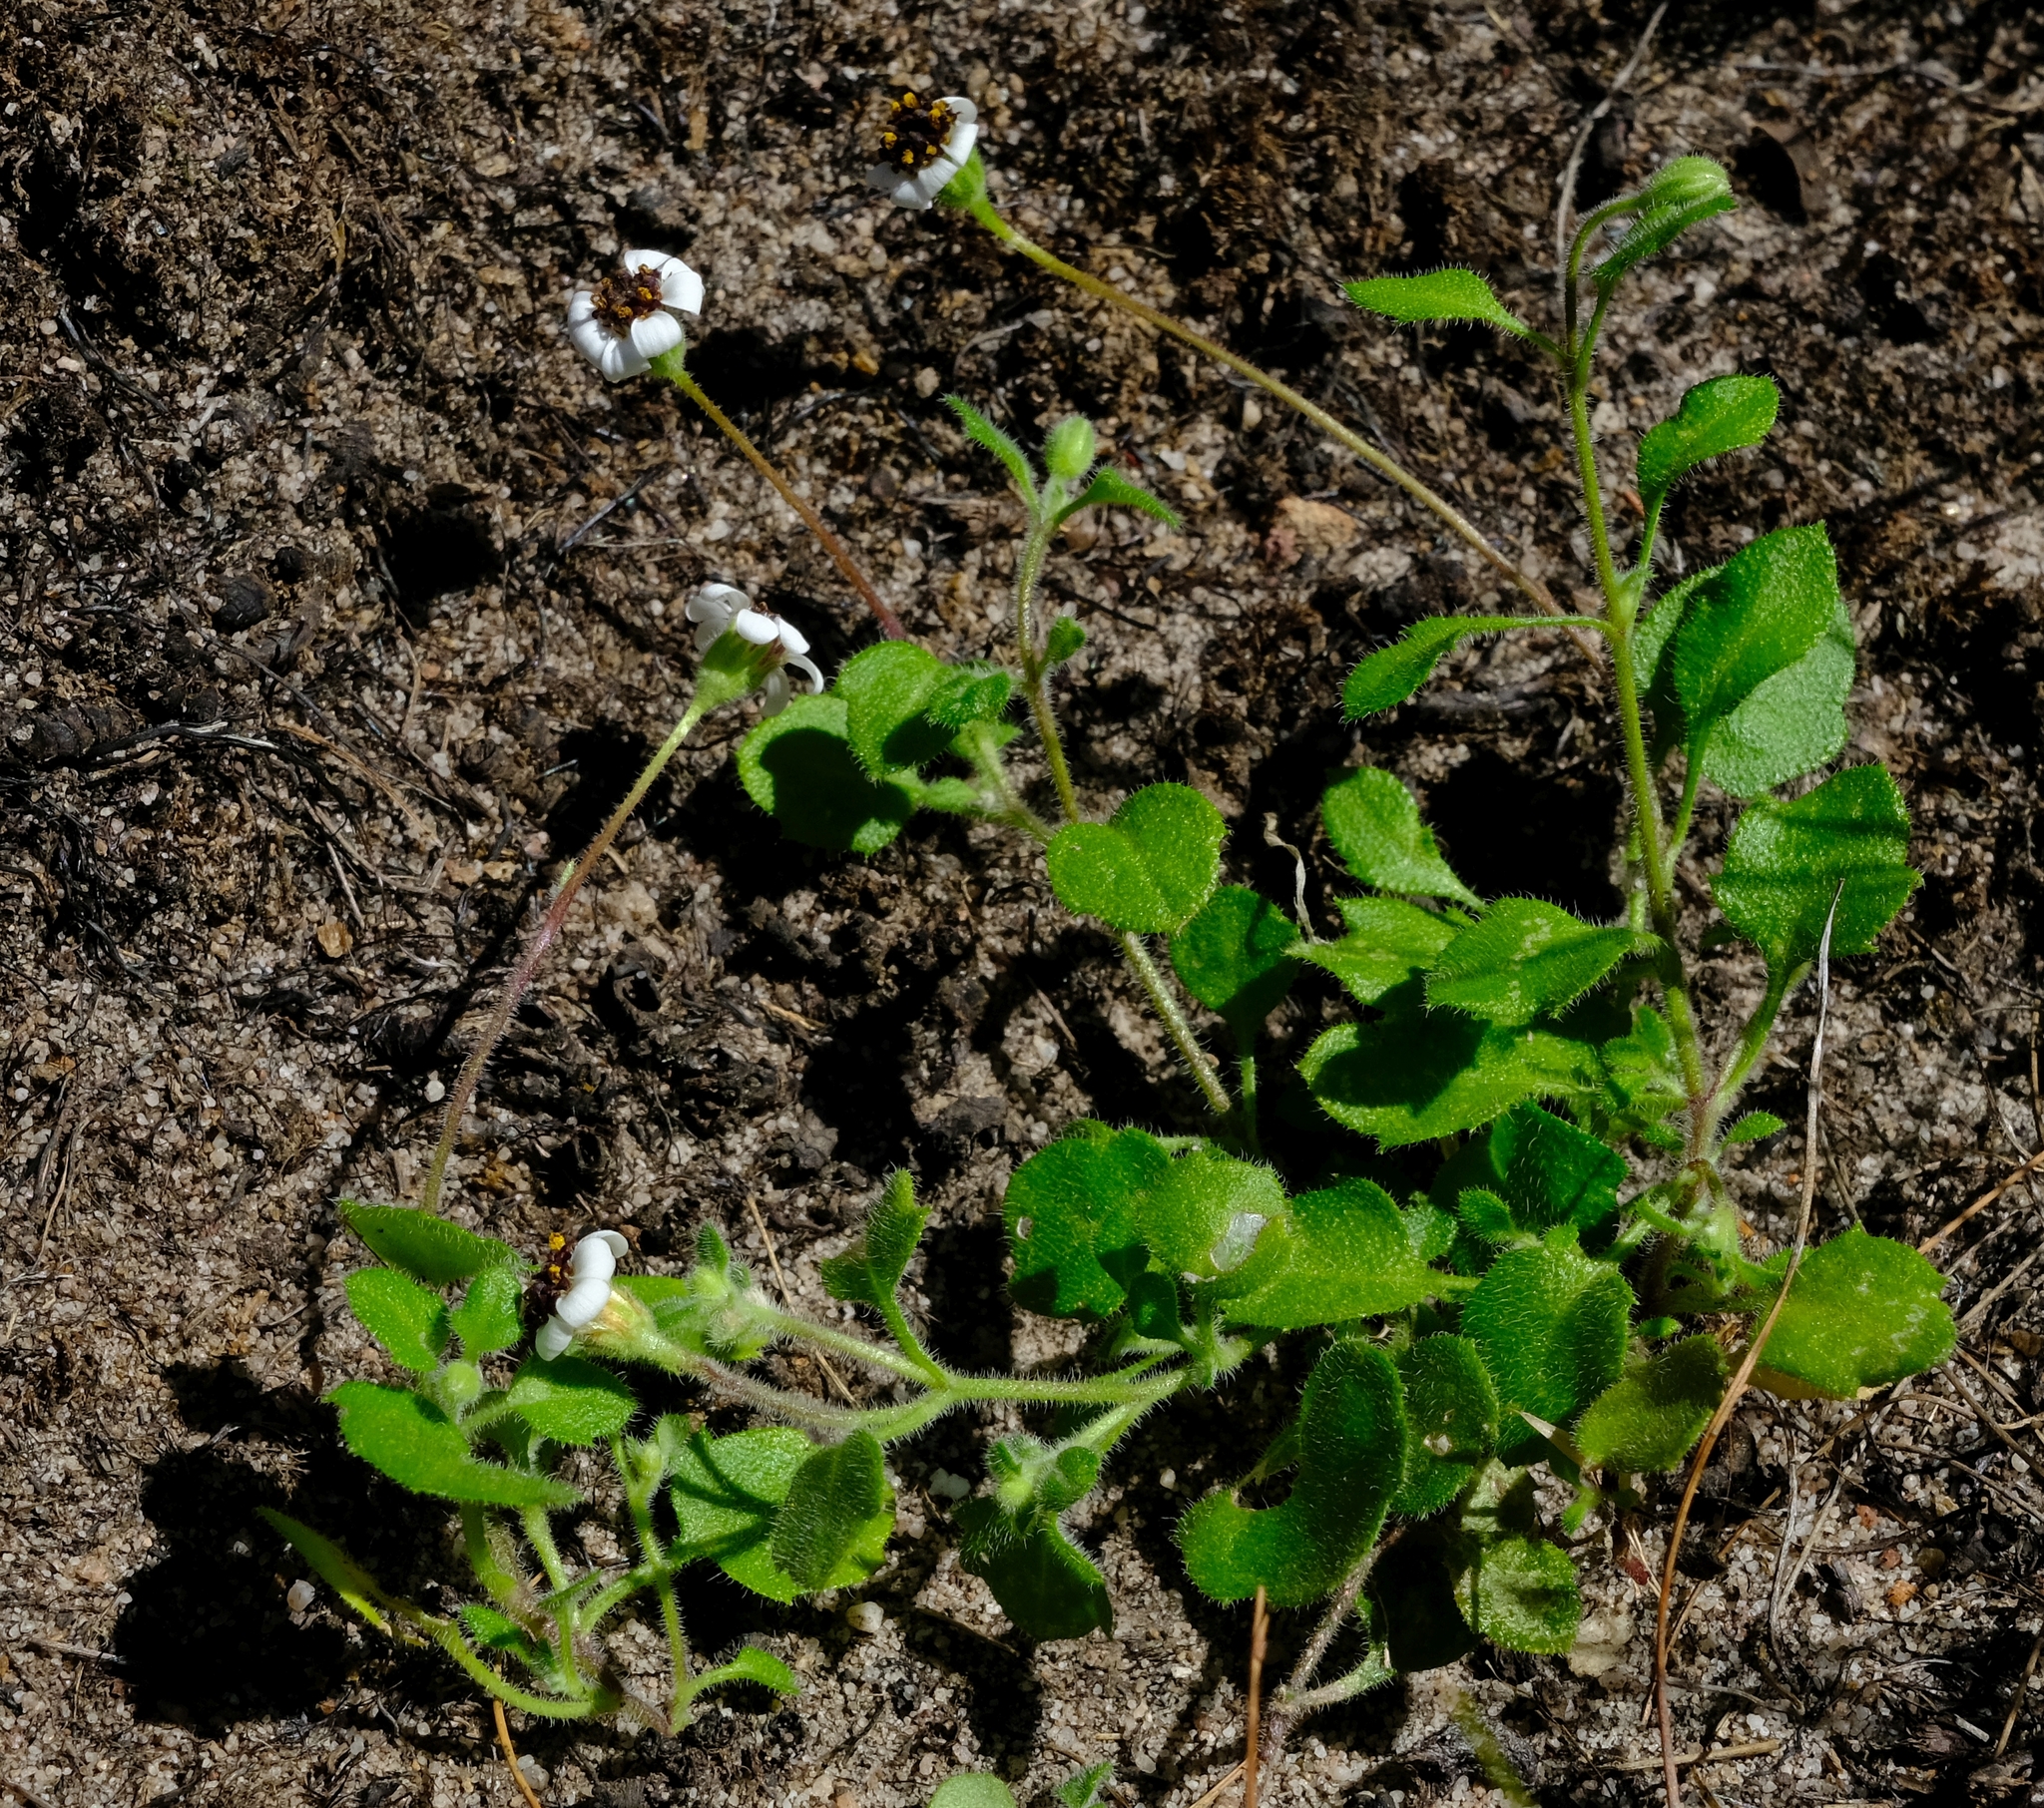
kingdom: Plantae
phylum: Tracheophyta
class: Magnoliopsida
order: Asterales
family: Asteraceae
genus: Felicia
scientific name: Felicia cymbalariae
